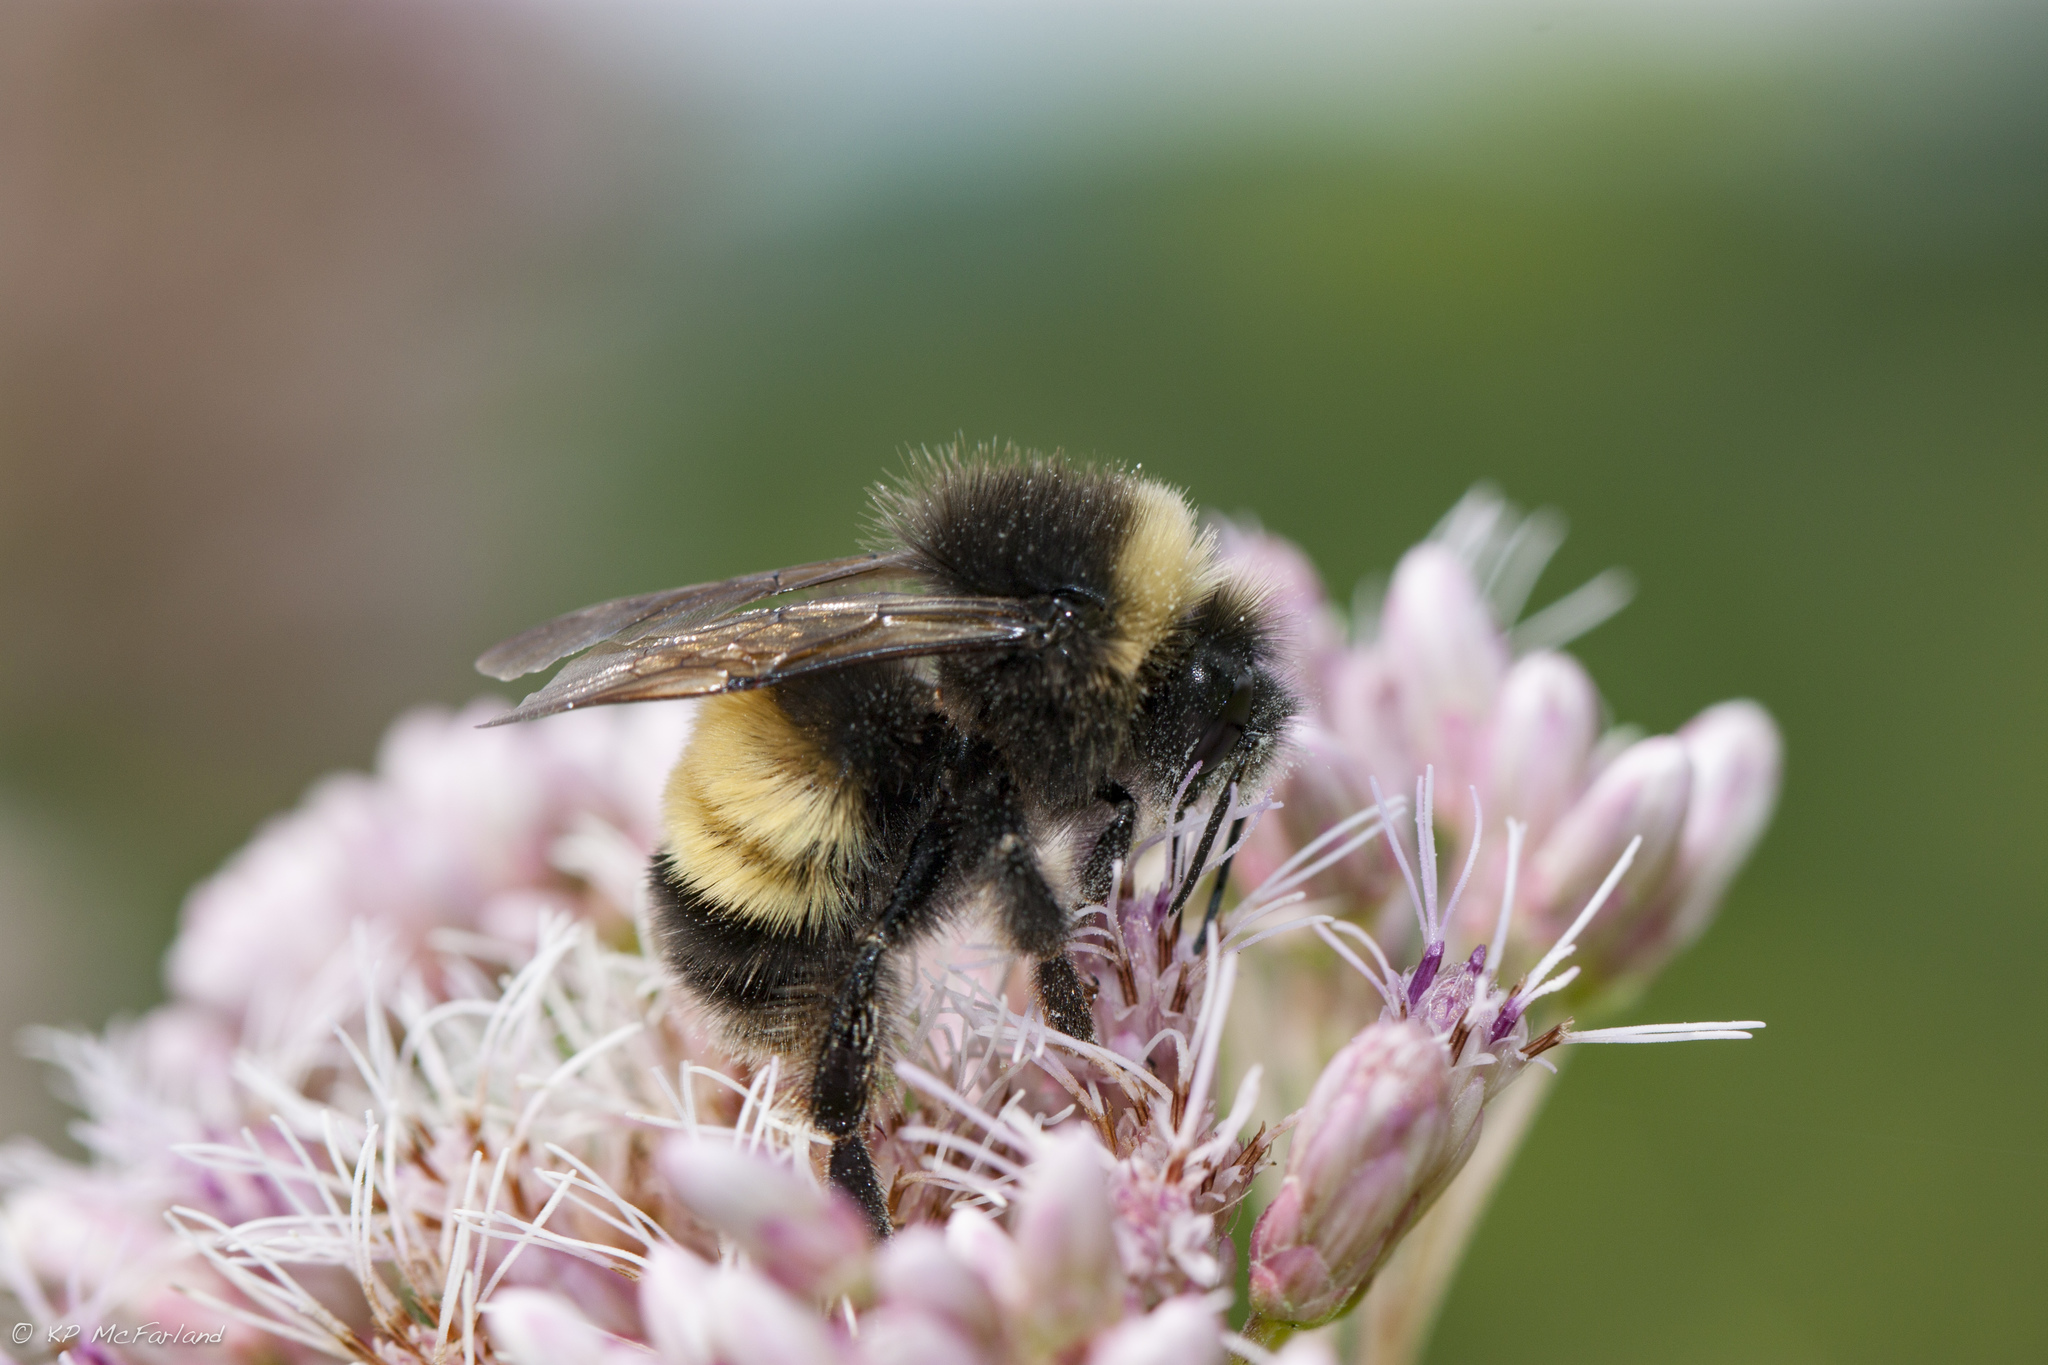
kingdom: Animalia
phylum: Arthropoda
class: Insecta
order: Hymenoptera
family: Apidae
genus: Bombus
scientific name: Bombus terricola
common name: Yellow-banded bumble bee
